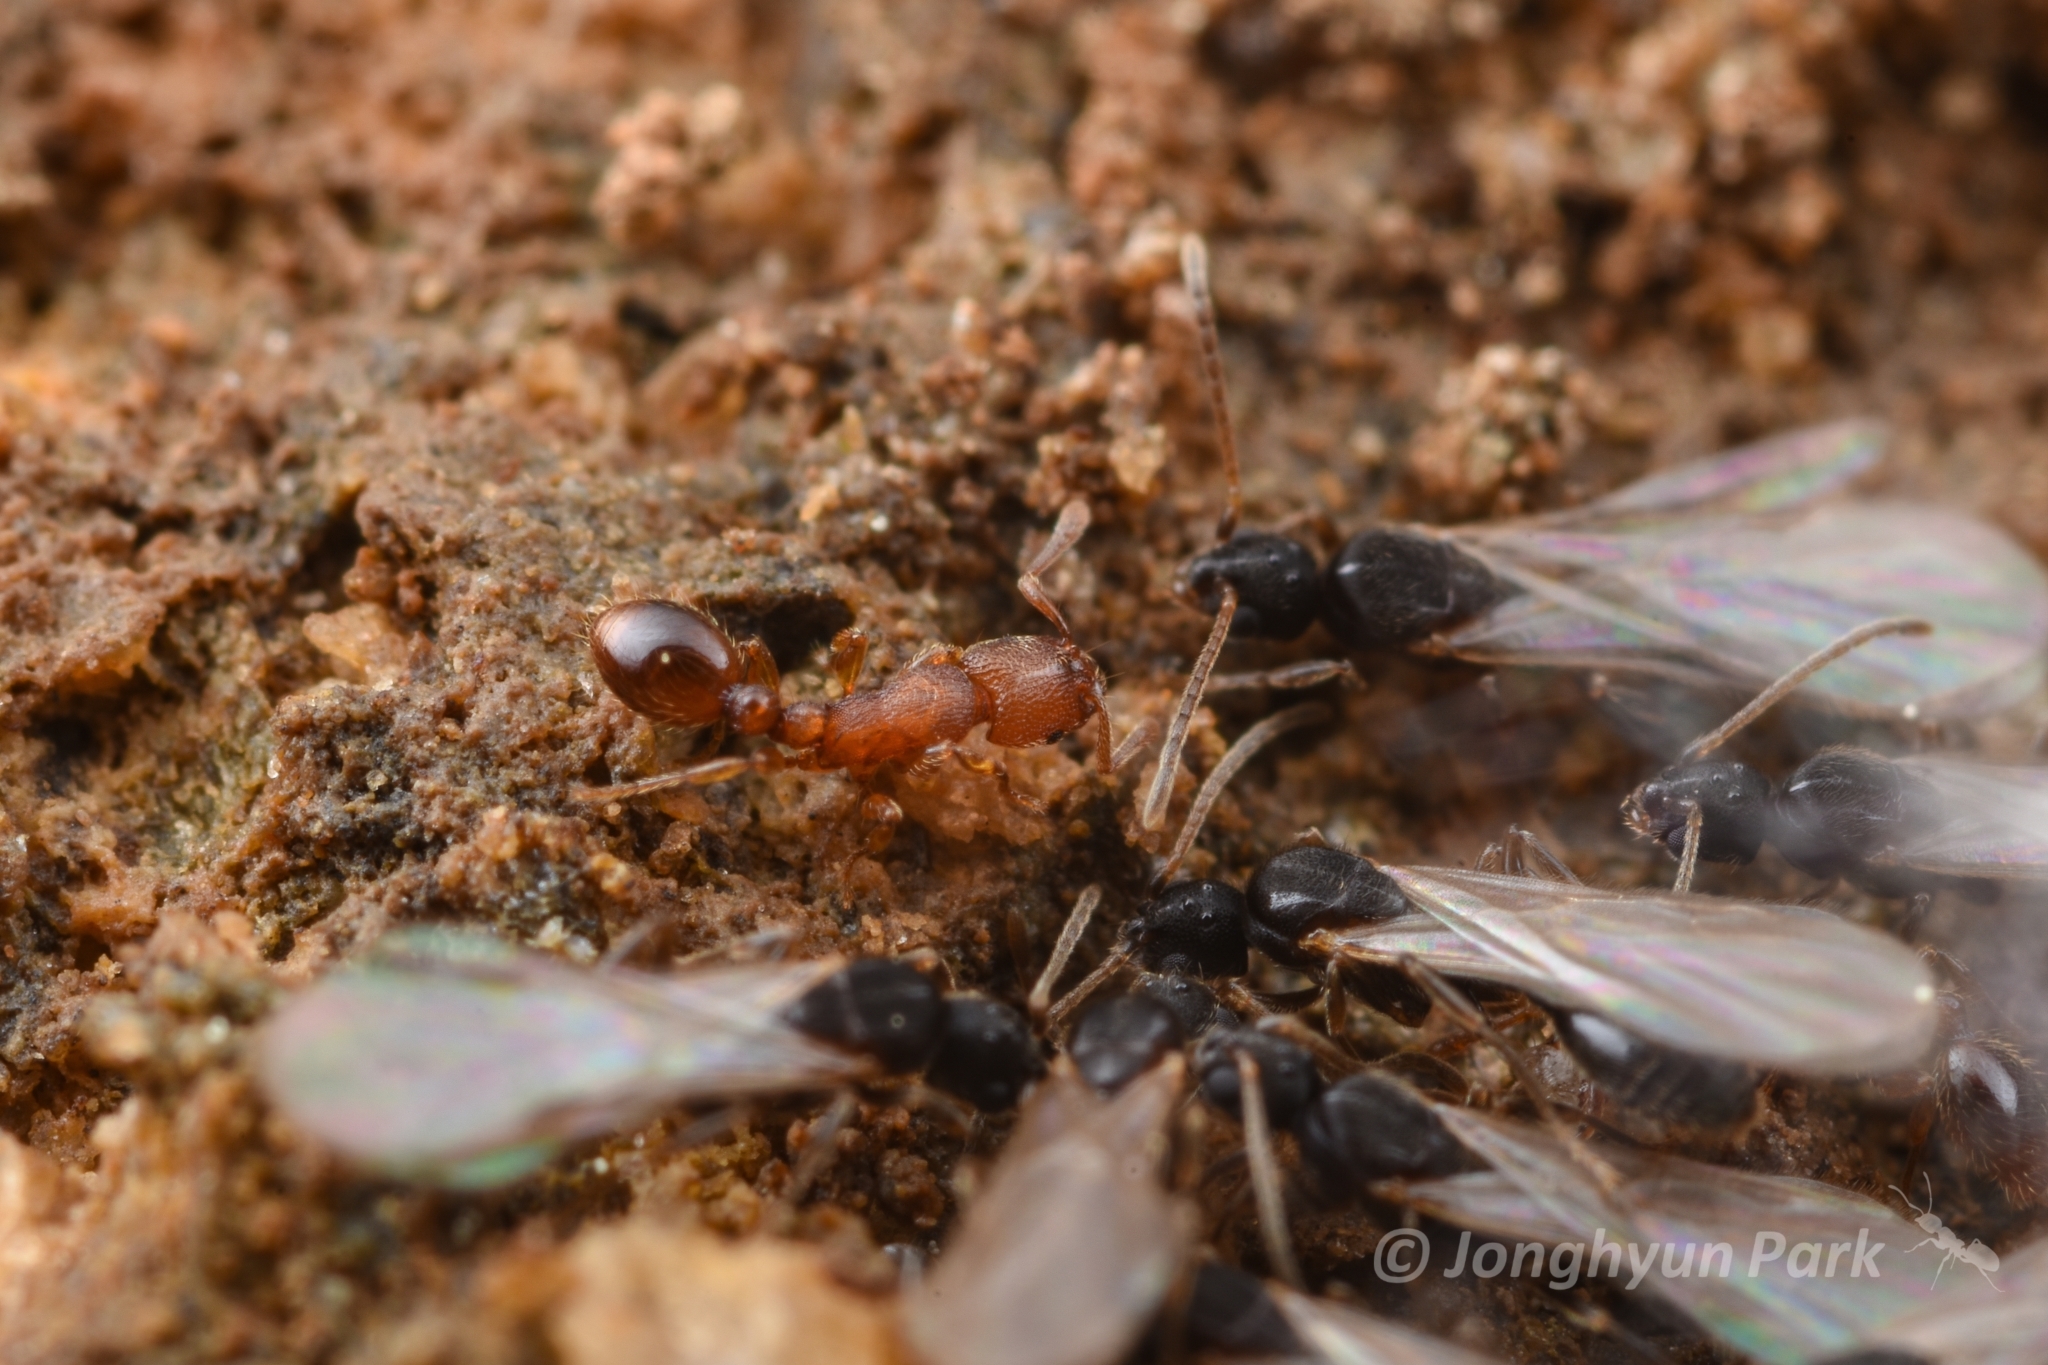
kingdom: Animalia
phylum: Arthropoda
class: Insecta
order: Hymenoptera
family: Formicidae
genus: Vollenhovia
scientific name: Vollenhovia emeryi
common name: Ant
